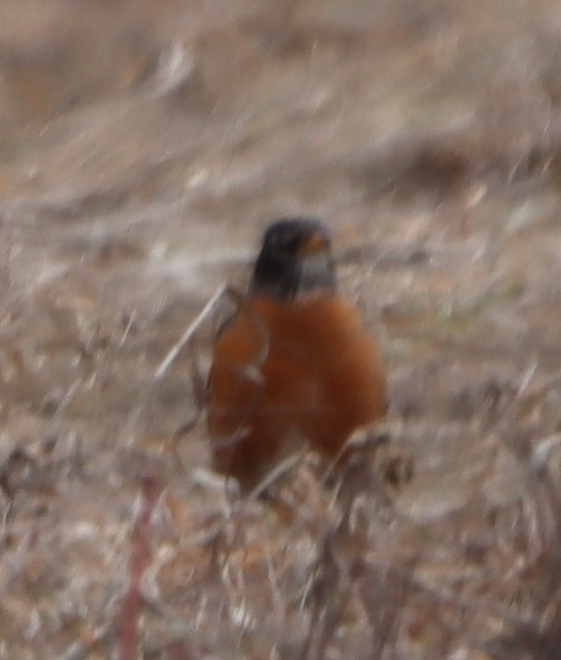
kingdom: Animalia
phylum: Chordata
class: Aves
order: Passeriformes
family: Turdidae
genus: Turdus
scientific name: Turdus migratorius
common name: American robin
